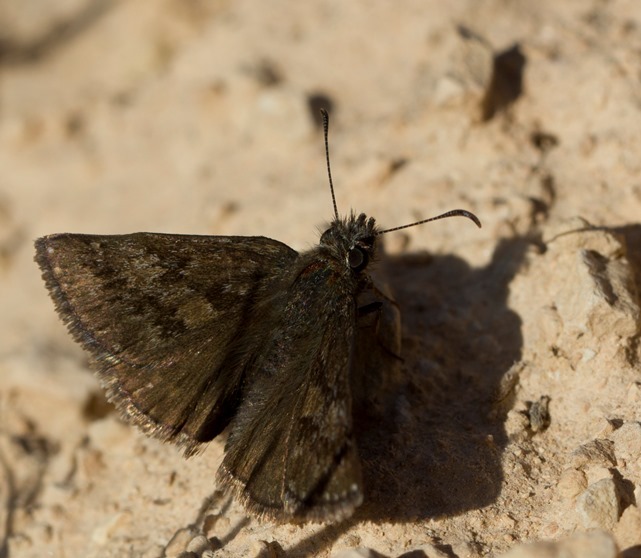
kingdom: Animalia
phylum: Arthropoda
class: Insecta
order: Lepidoptera
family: Hesperiidae
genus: Erynnis
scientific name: Erynnis tages
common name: Dingy skipper
